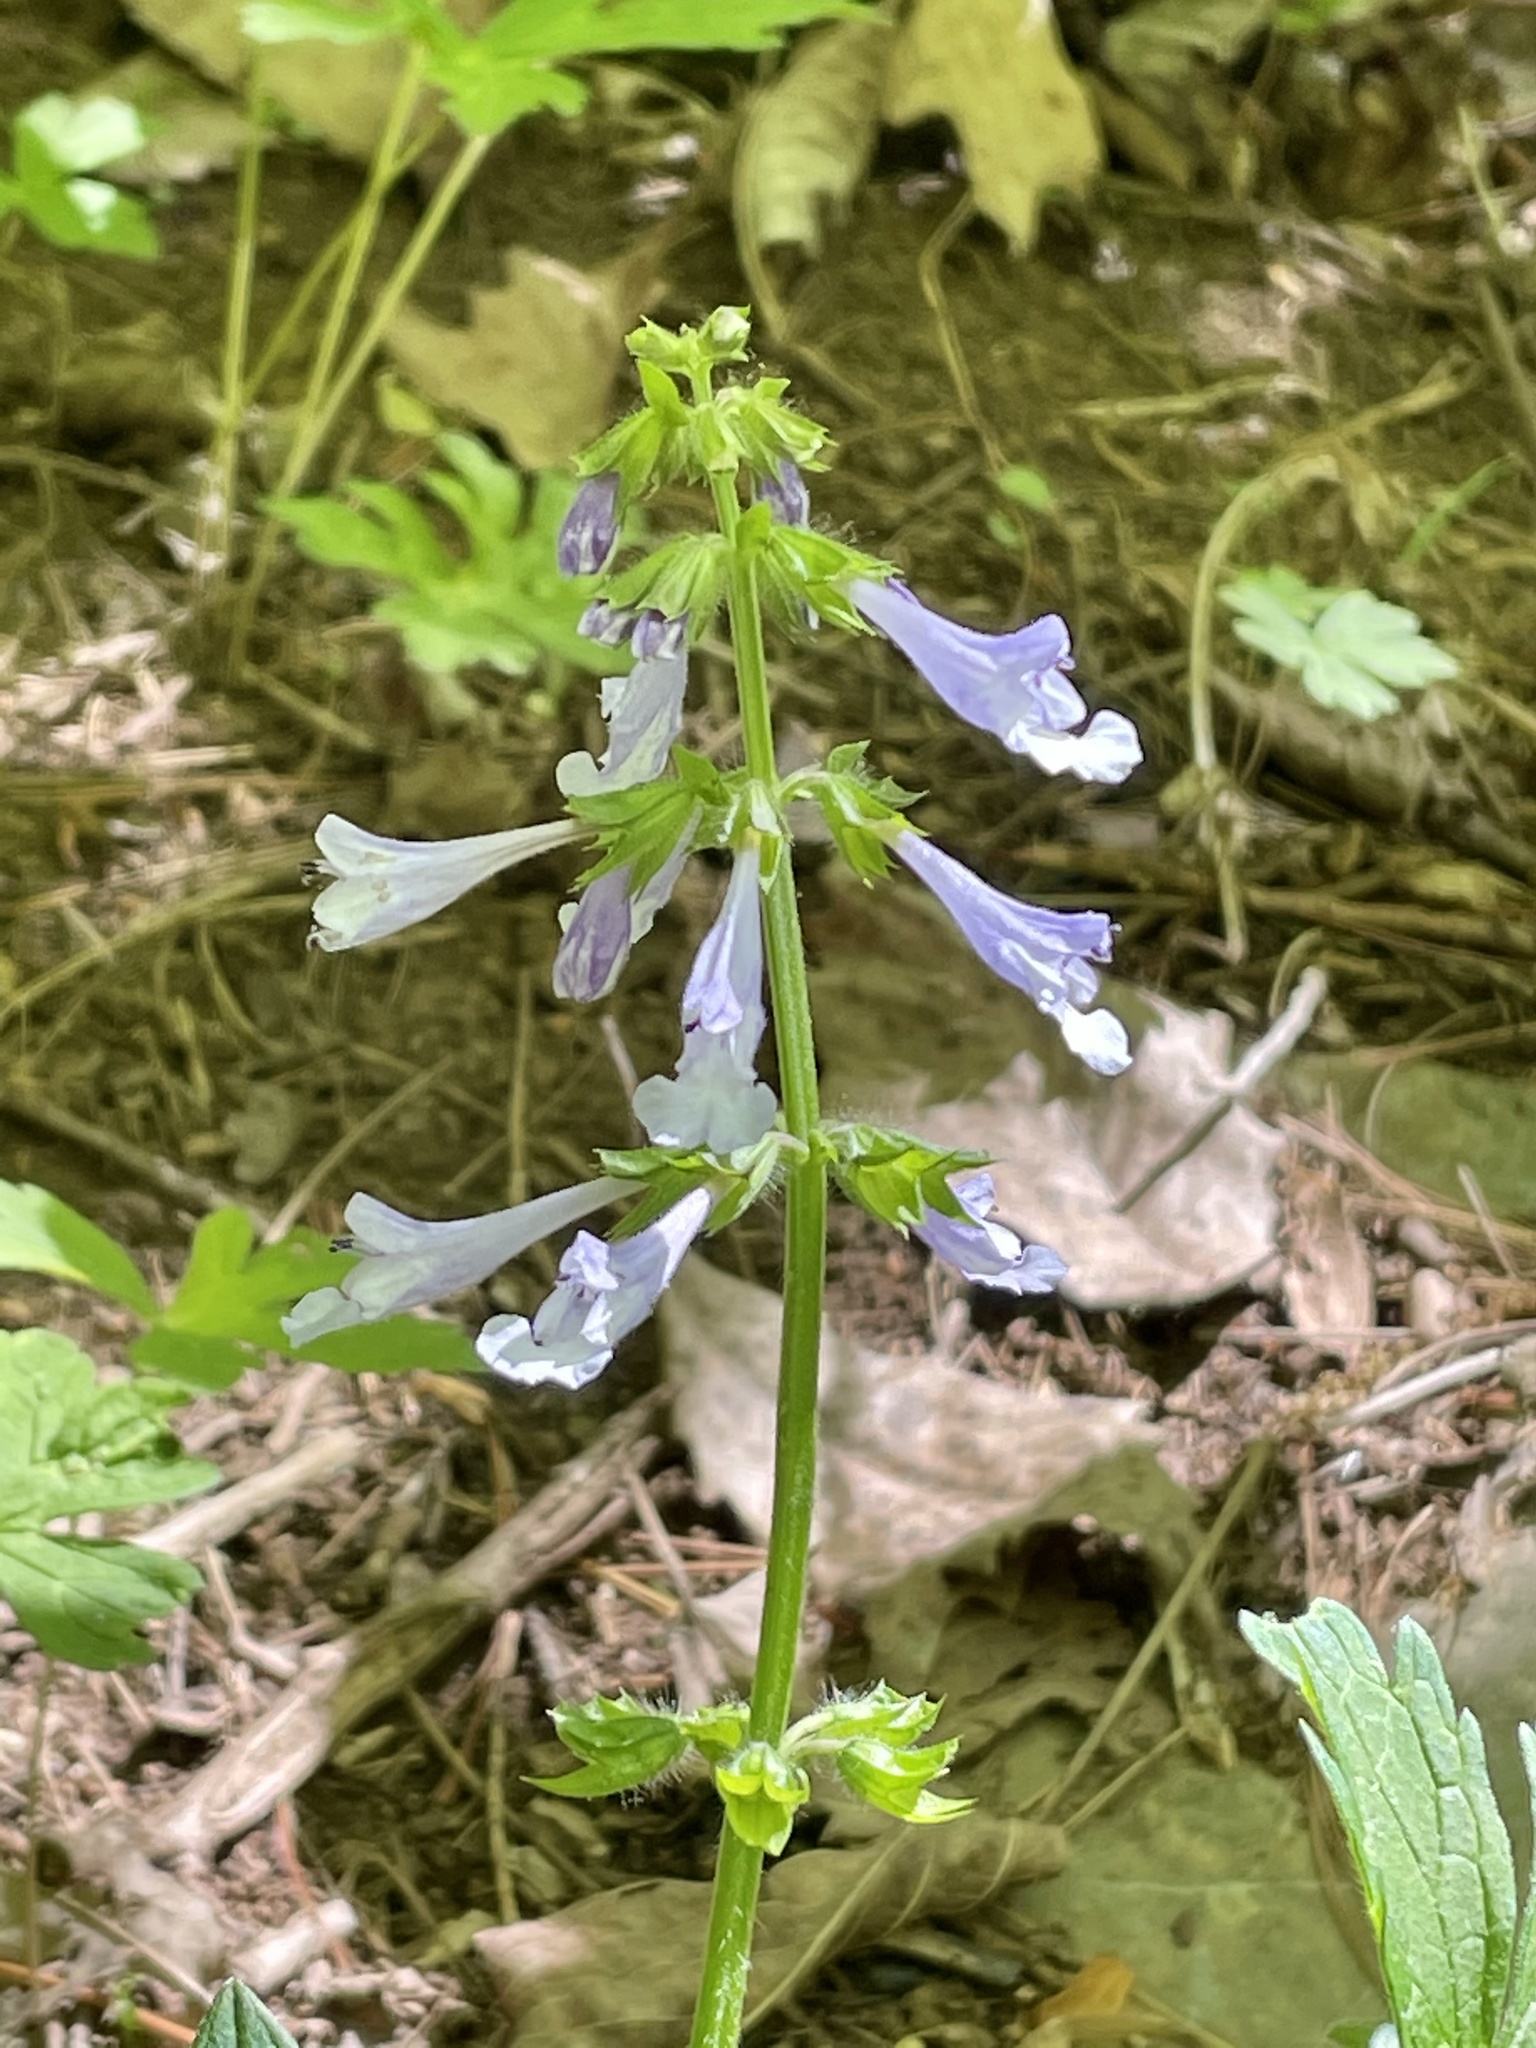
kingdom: Plantae
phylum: Tracheophyta
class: Magnoliopsida
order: Lamiales
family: Lamiaceae
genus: Salvia
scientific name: Salvia lyrata
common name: Cancerweed
